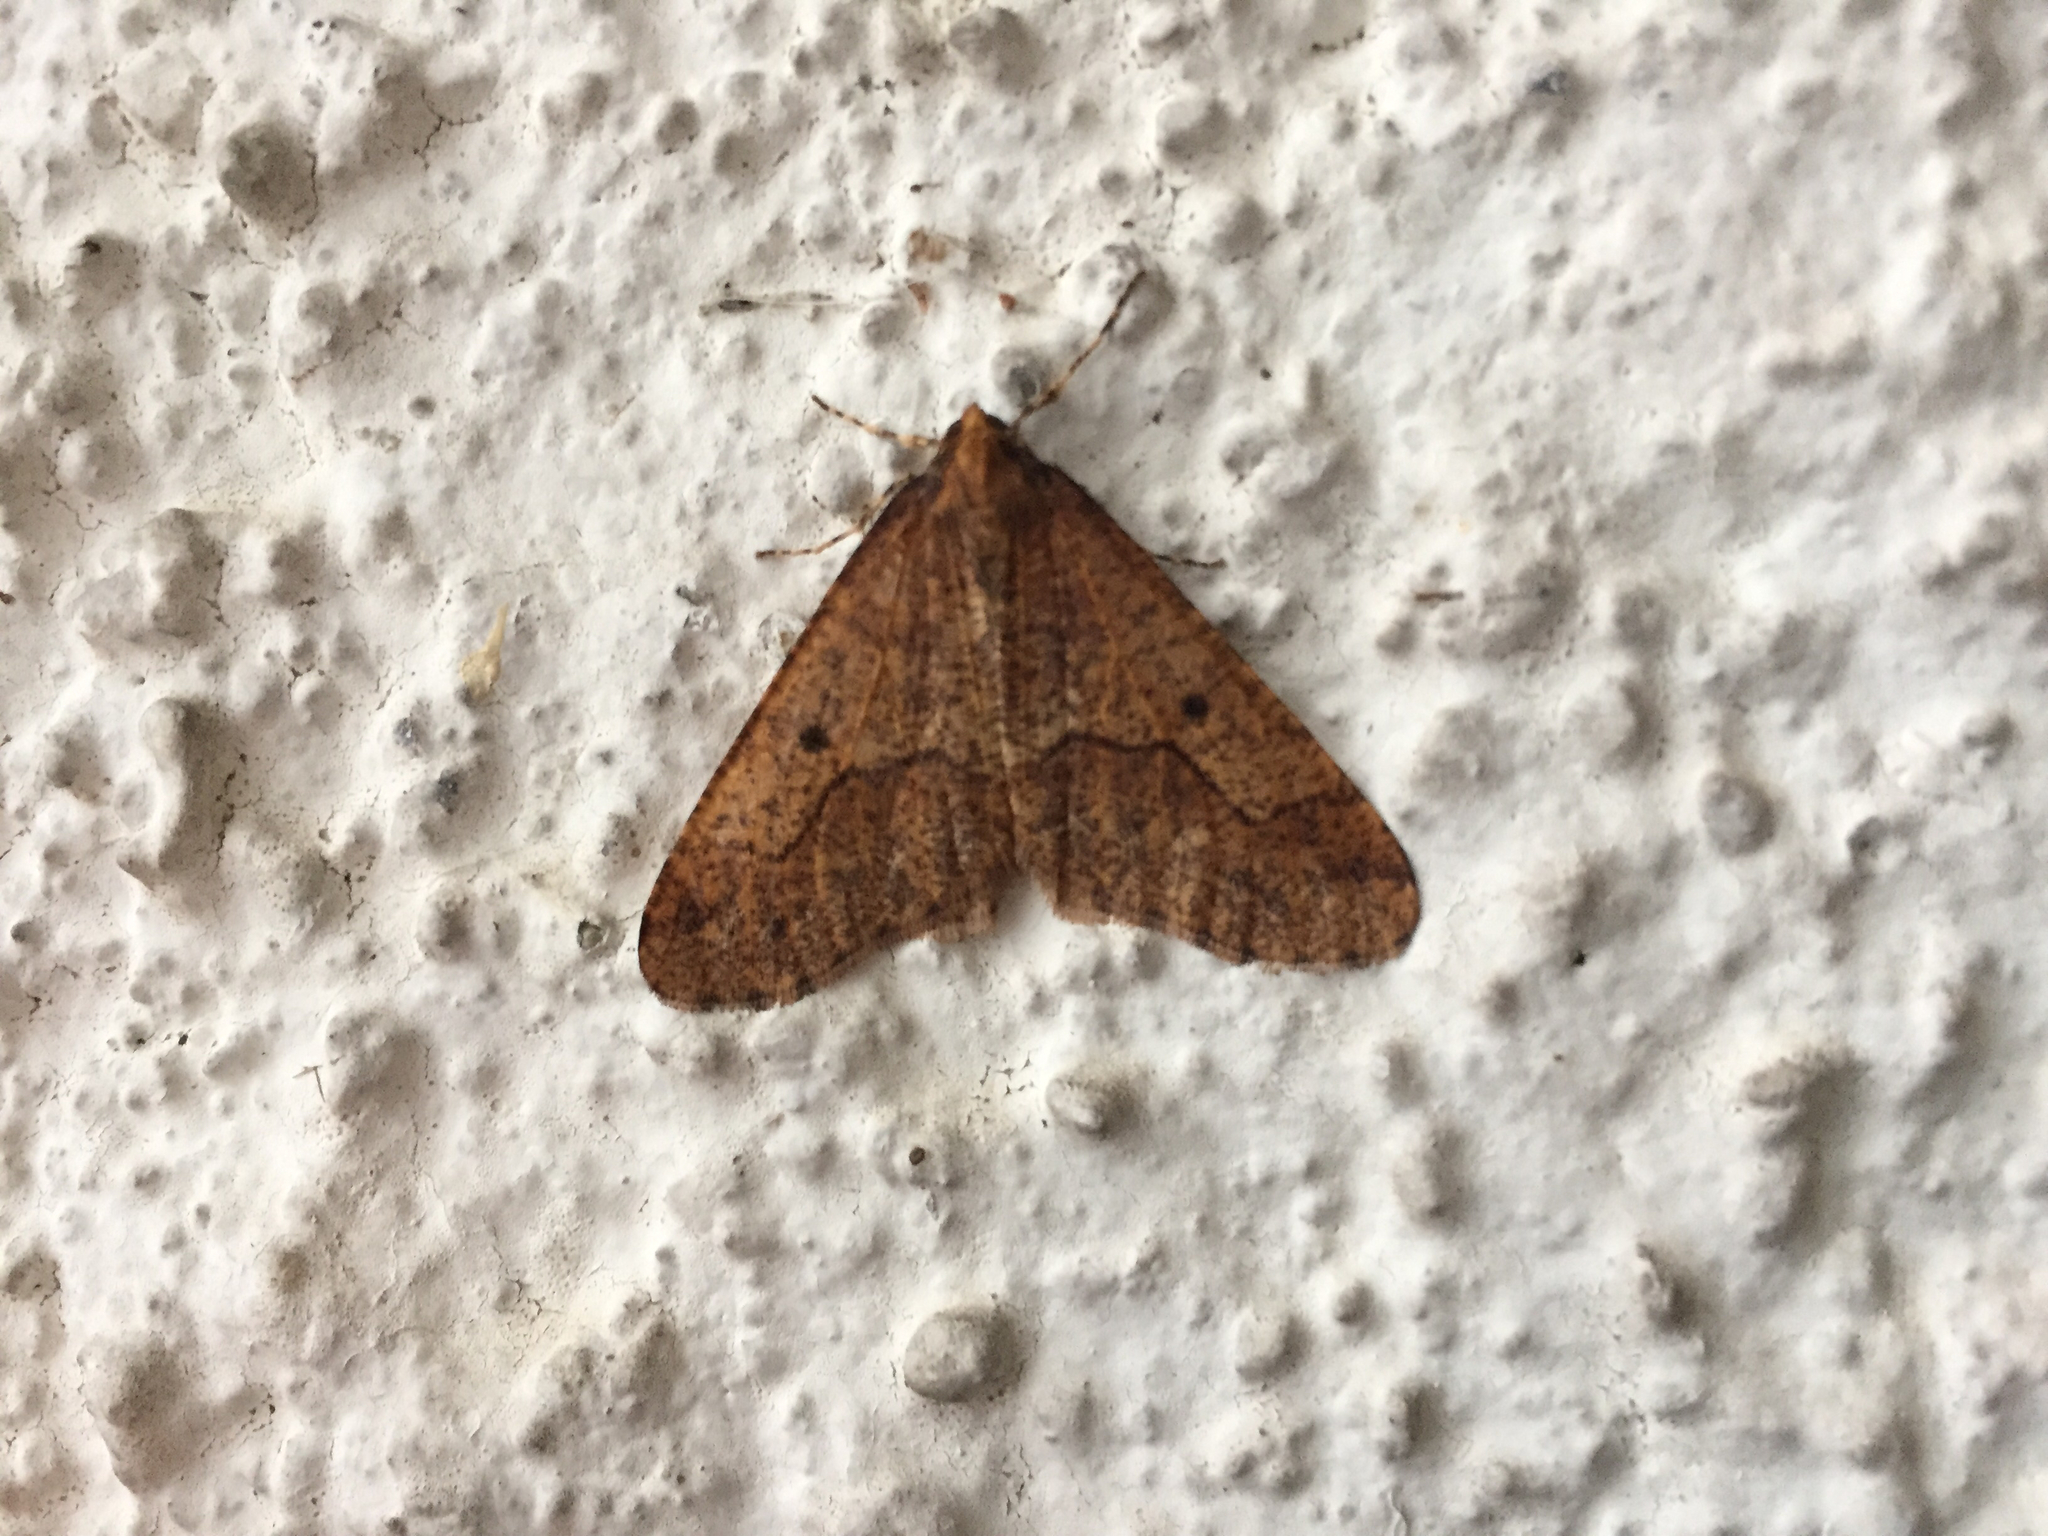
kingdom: Animalia
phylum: Arthropoda
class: Insecta
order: Lepidoptera
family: Geometridae
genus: Erannis
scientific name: Erannis defoliaria
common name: Mottled umber
